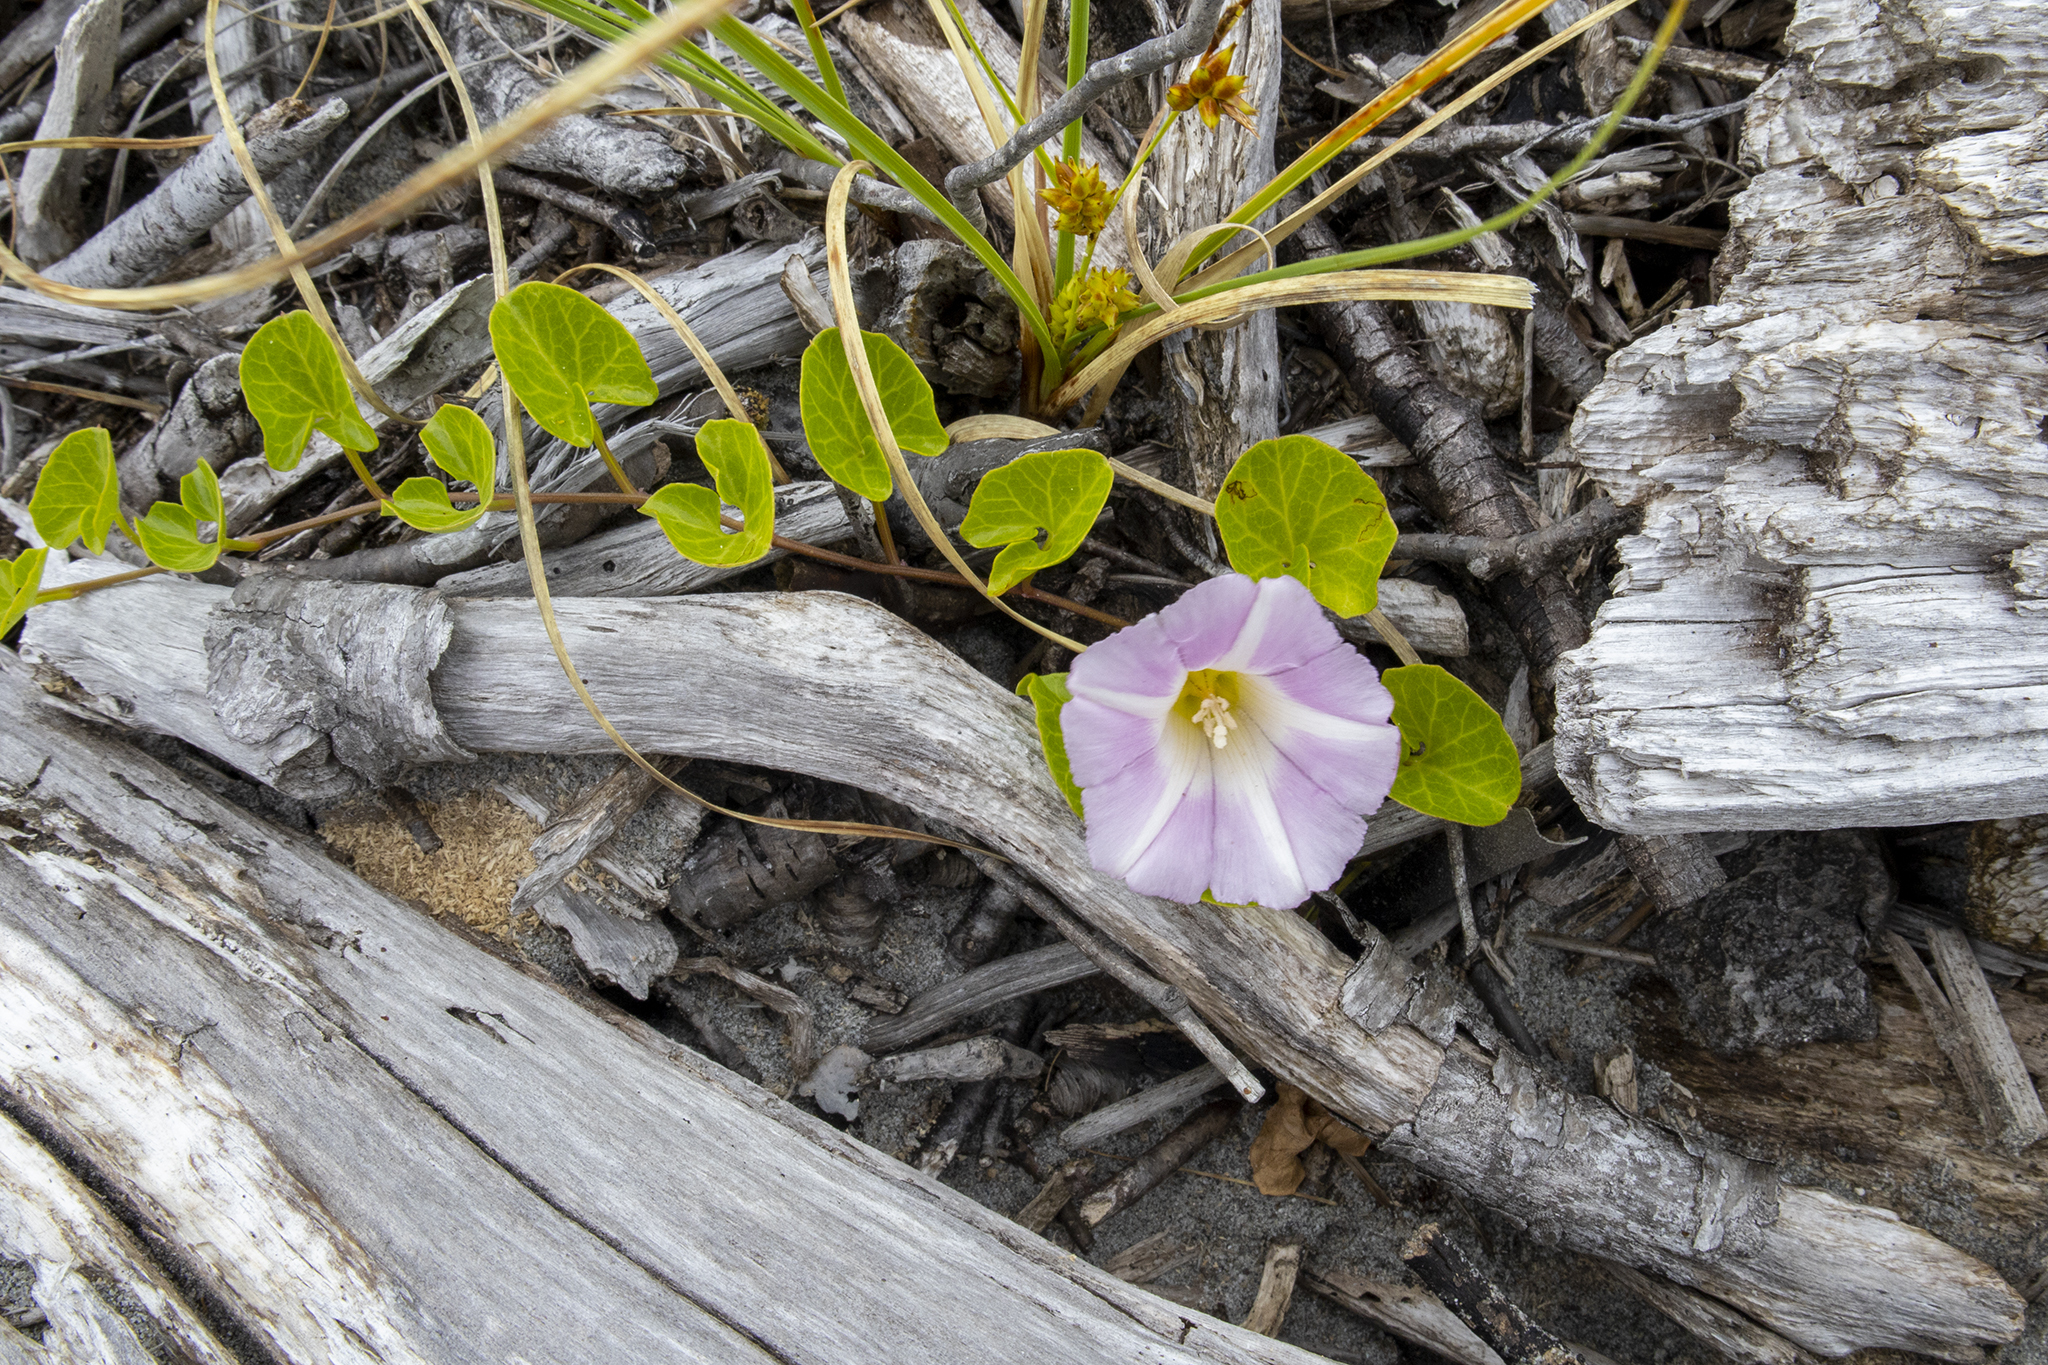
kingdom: Plantae
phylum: Tracheophyta
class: Magnoliopsida
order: Solanales
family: Convolvulaceae
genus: Calystegia
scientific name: Calystegia soldanella
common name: Sea bindweed
